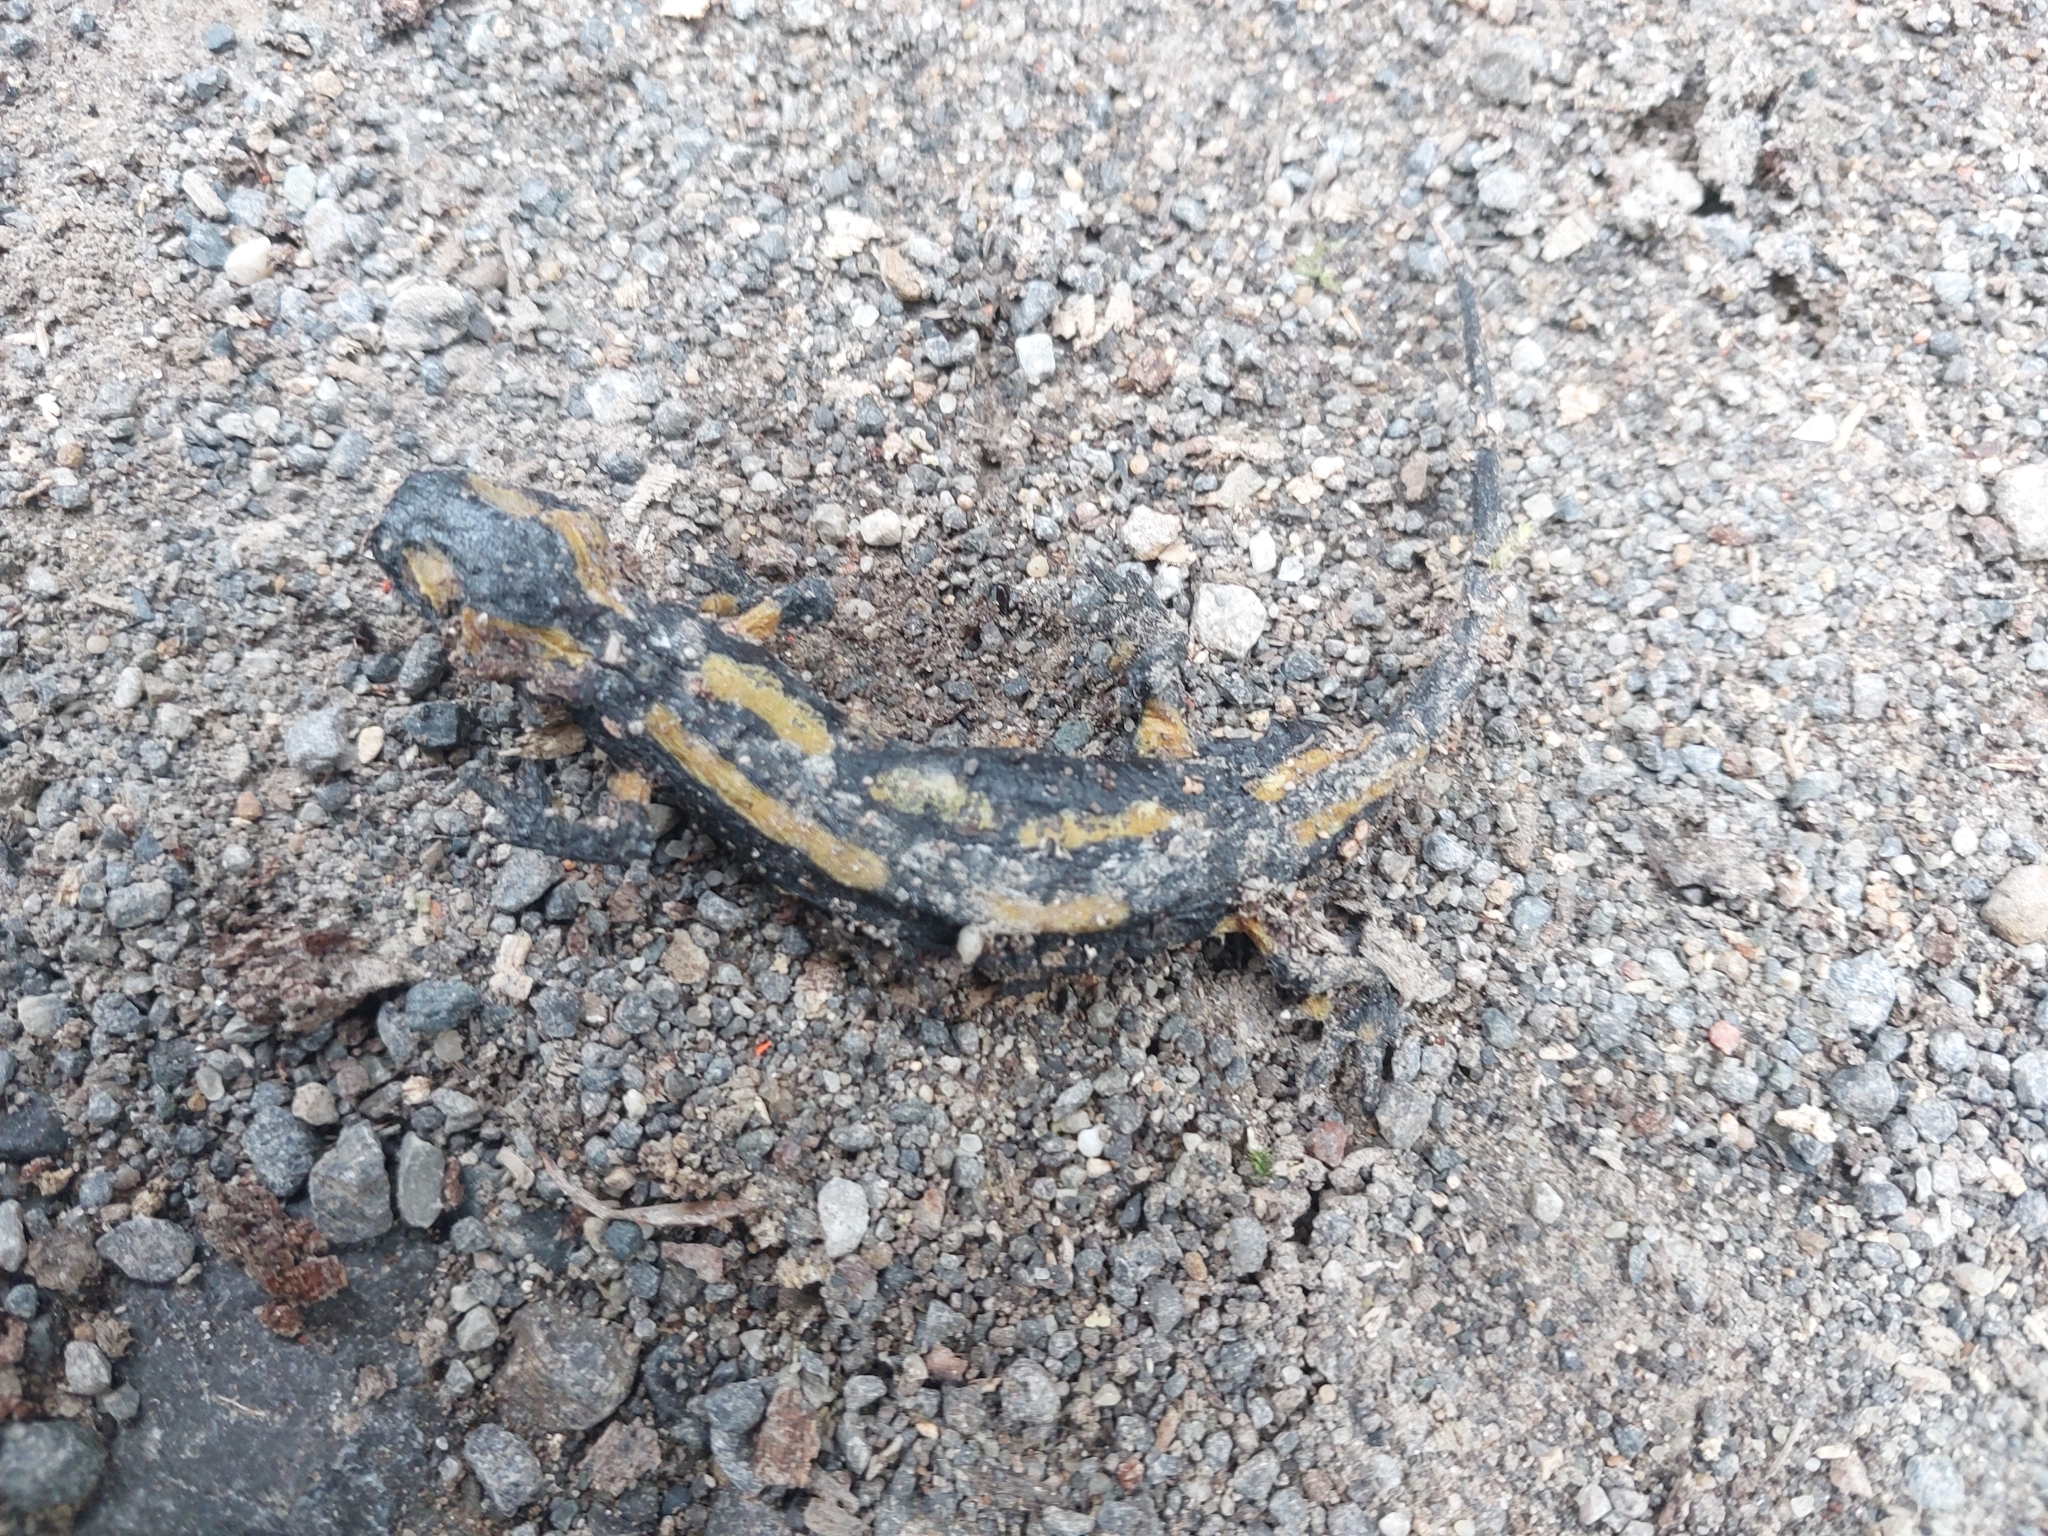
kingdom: Animalia
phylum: Chordata
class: Amphibia
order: Caudata
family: Salamandridae
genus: Salamandra
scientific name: Salamandra salamandra
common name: Fire salamander
